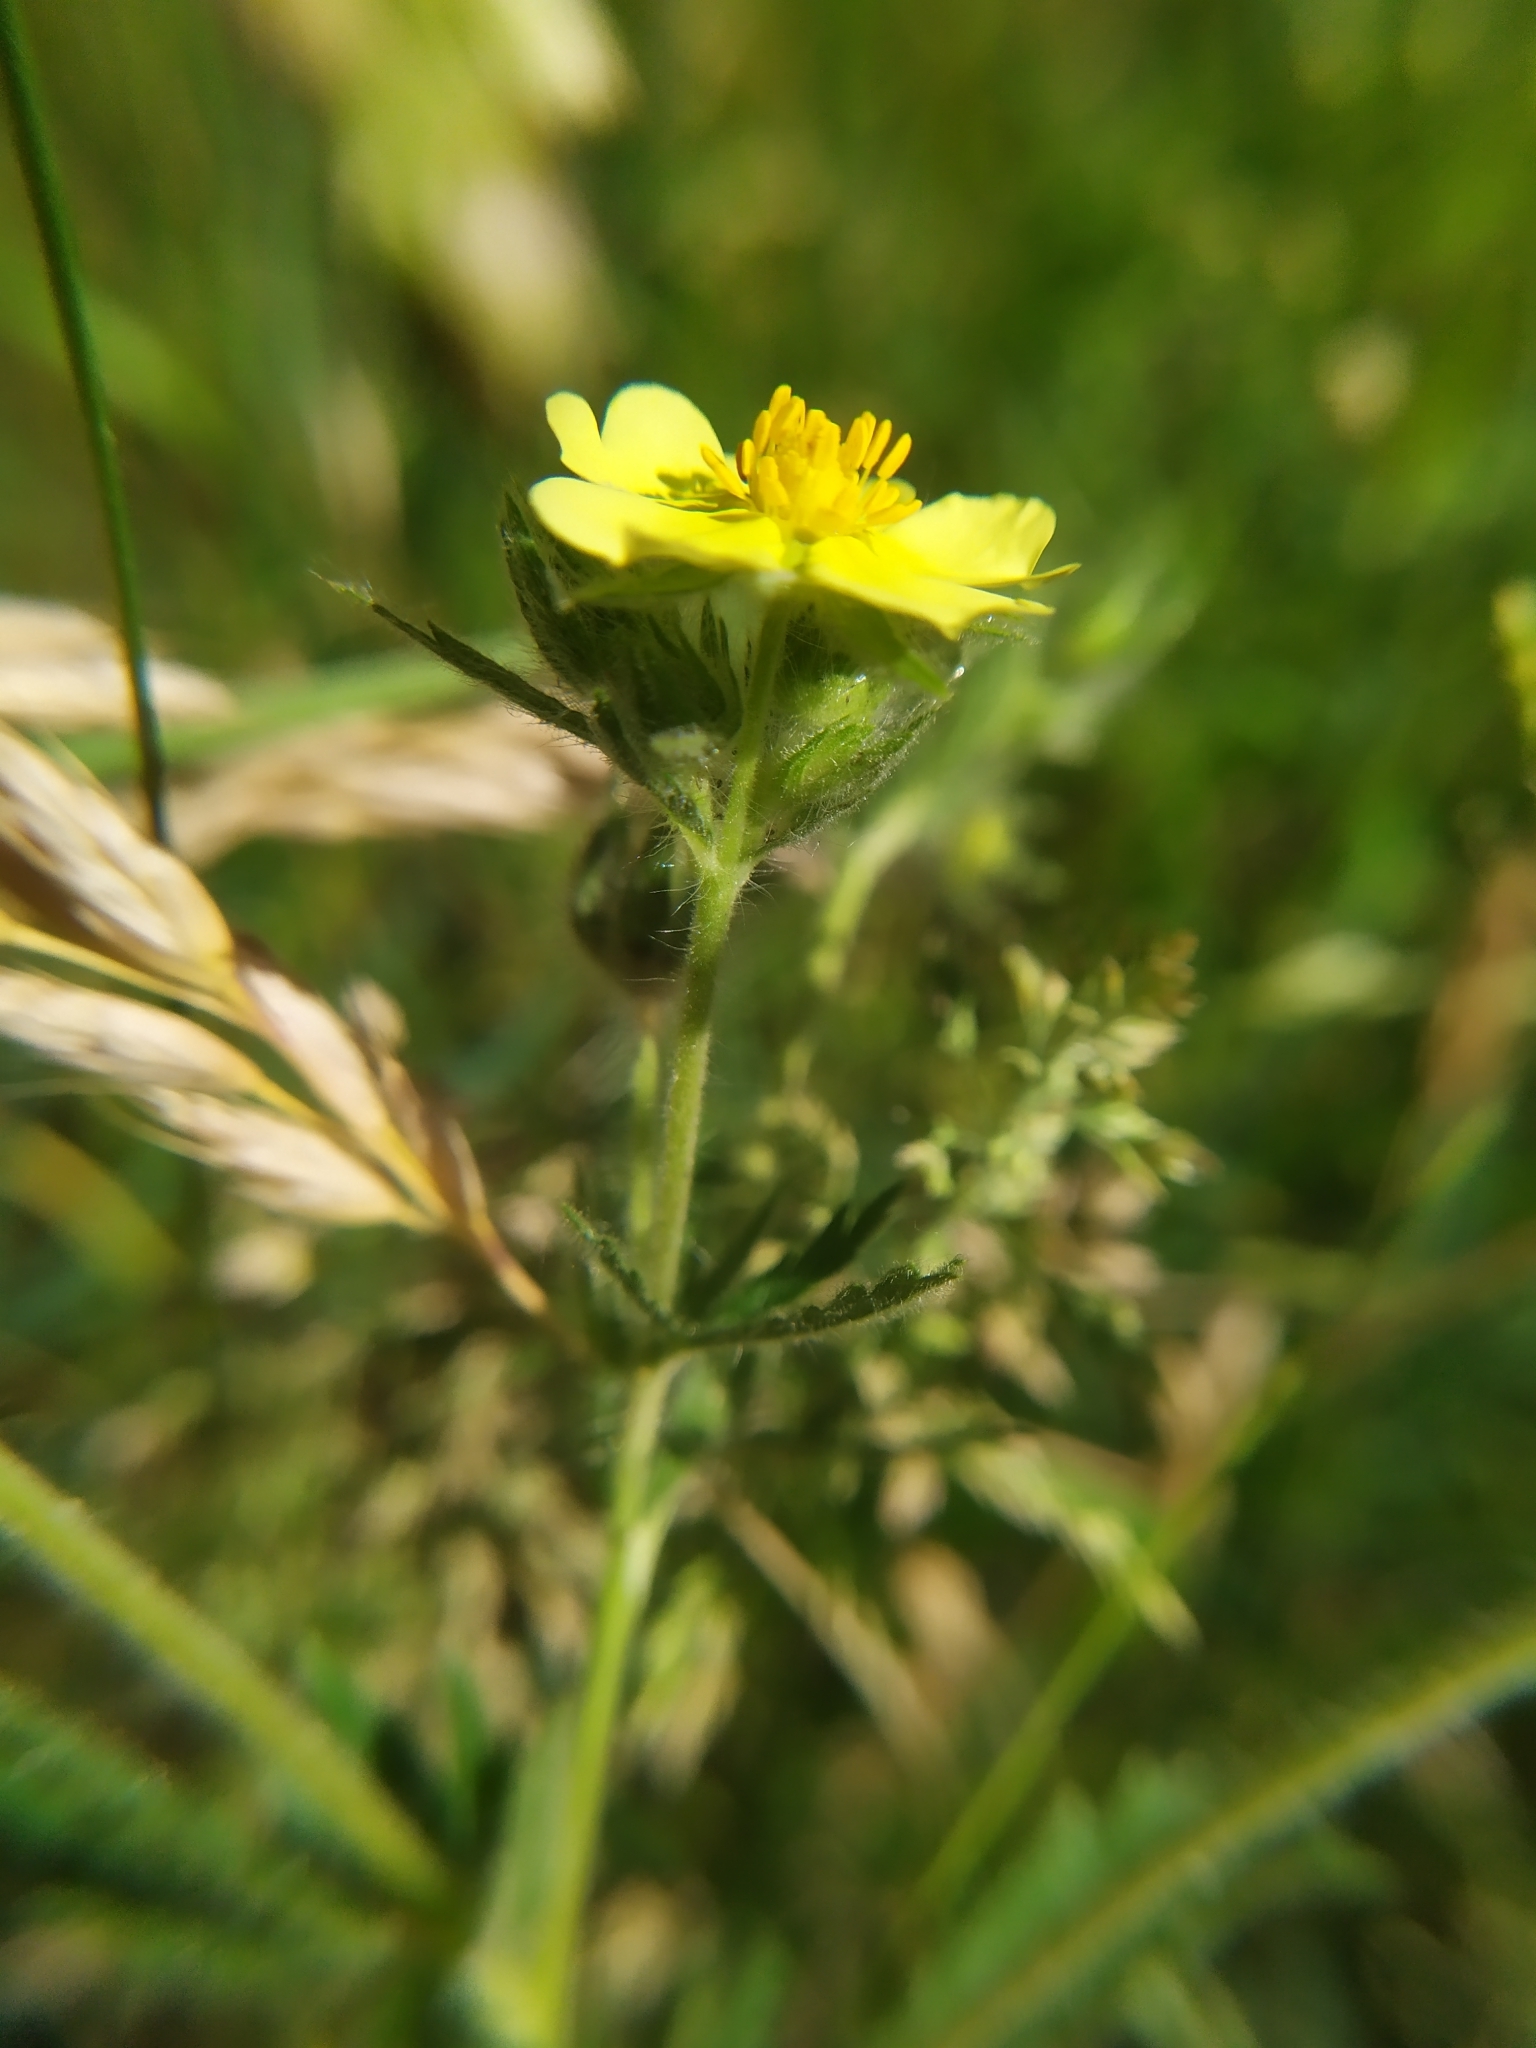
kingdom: Plantae
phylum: Tracheophyta
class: Magnoliopsida
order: Rosales
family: Rosaceae
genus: Potentilla
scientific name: Potentilla recta
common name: Sulphur cinquefoil
